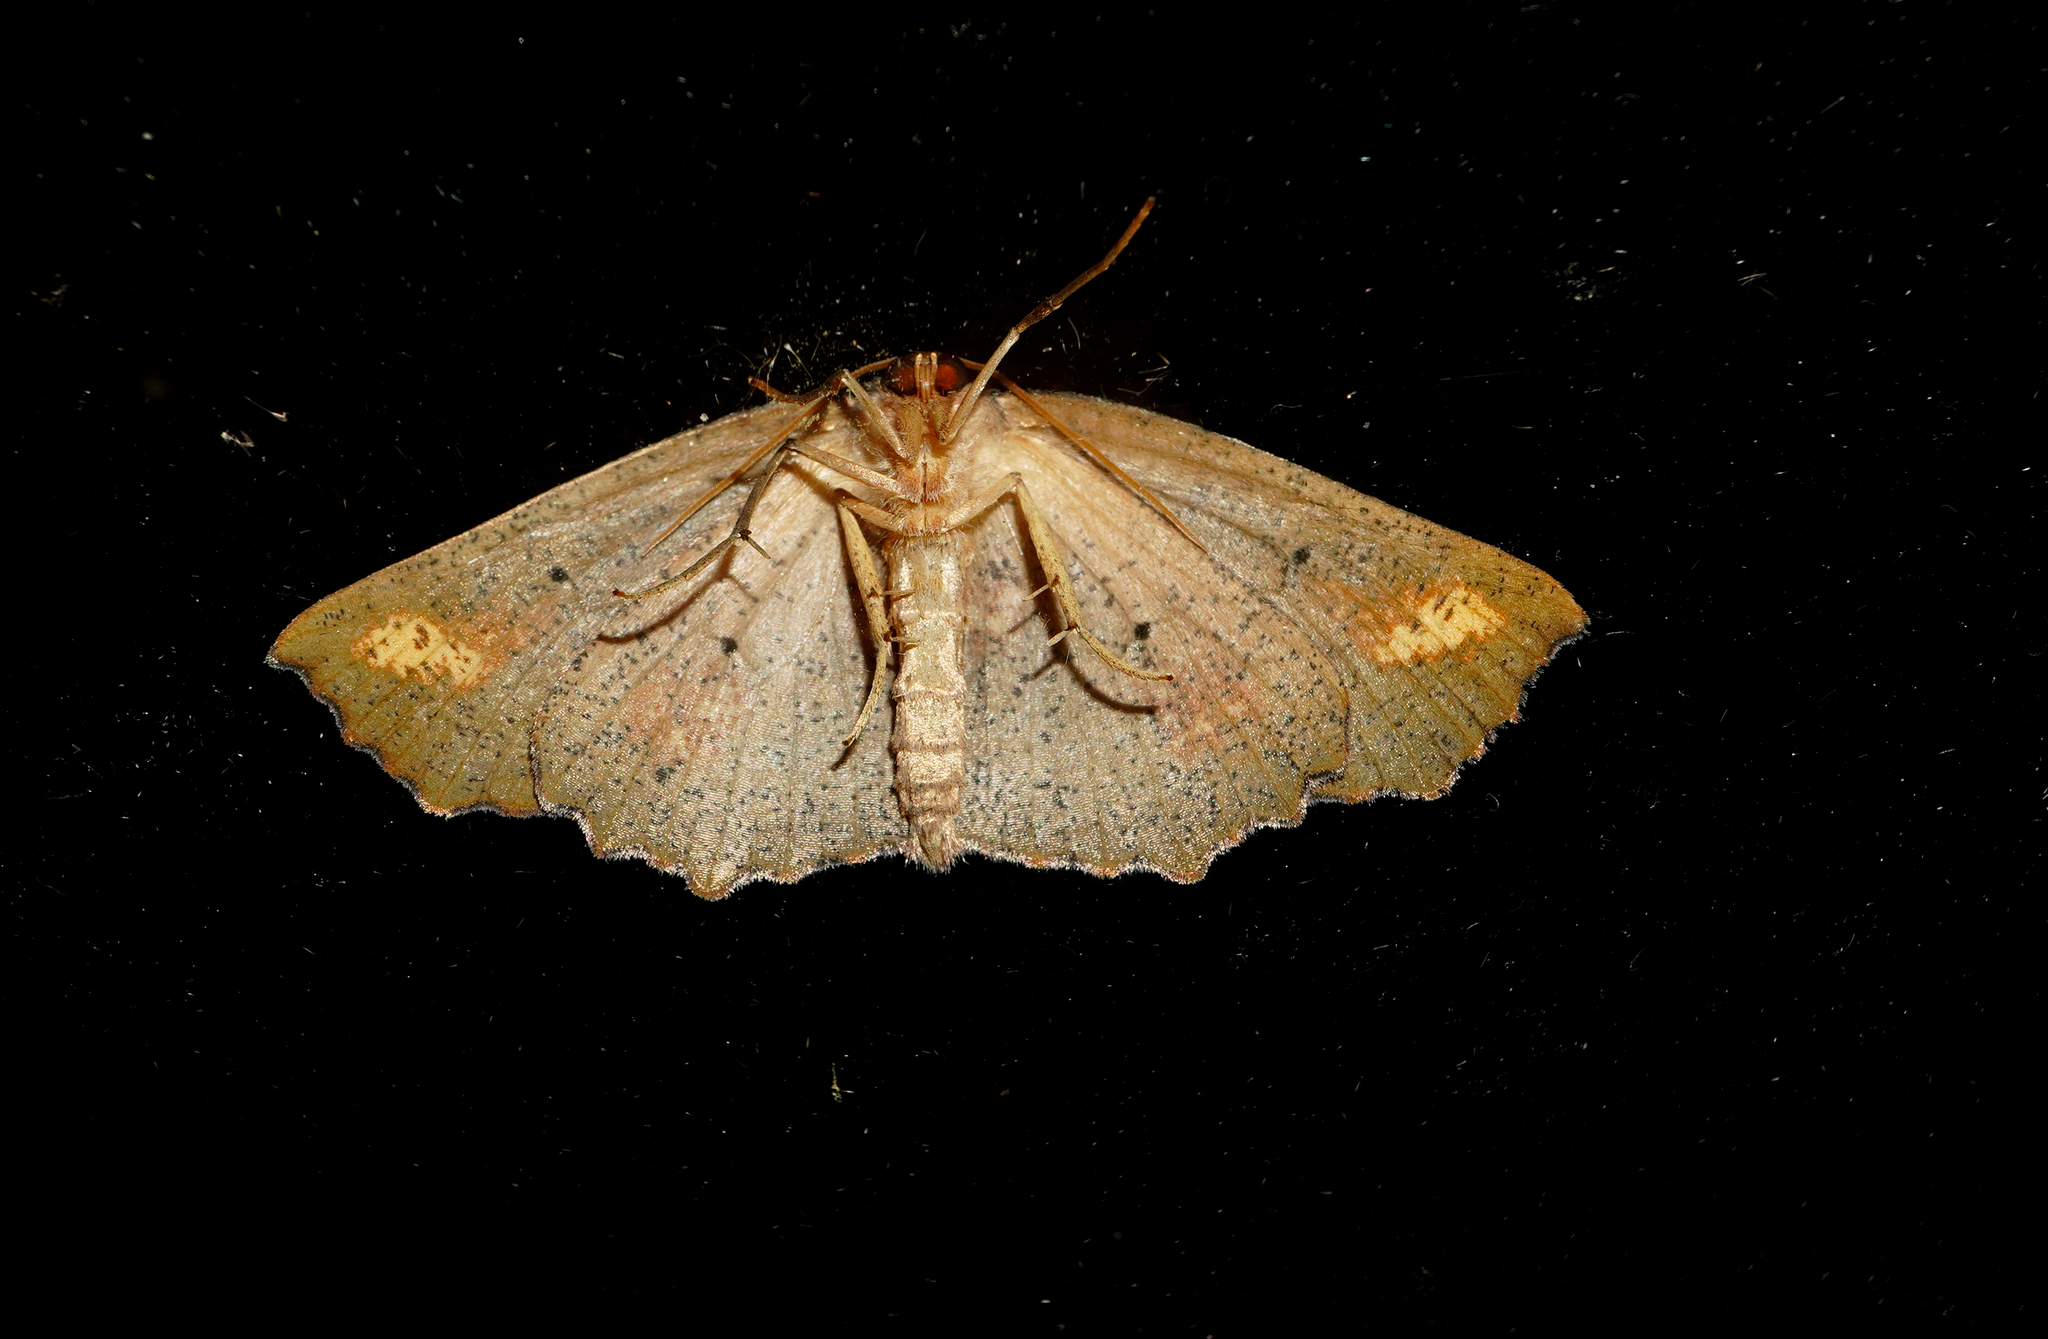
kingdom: Animalia
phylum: Arthropoda
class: Insecta
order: Lepidoptera
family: Geometridae
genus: Xyridacma
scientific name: Xyridacma ustaria
